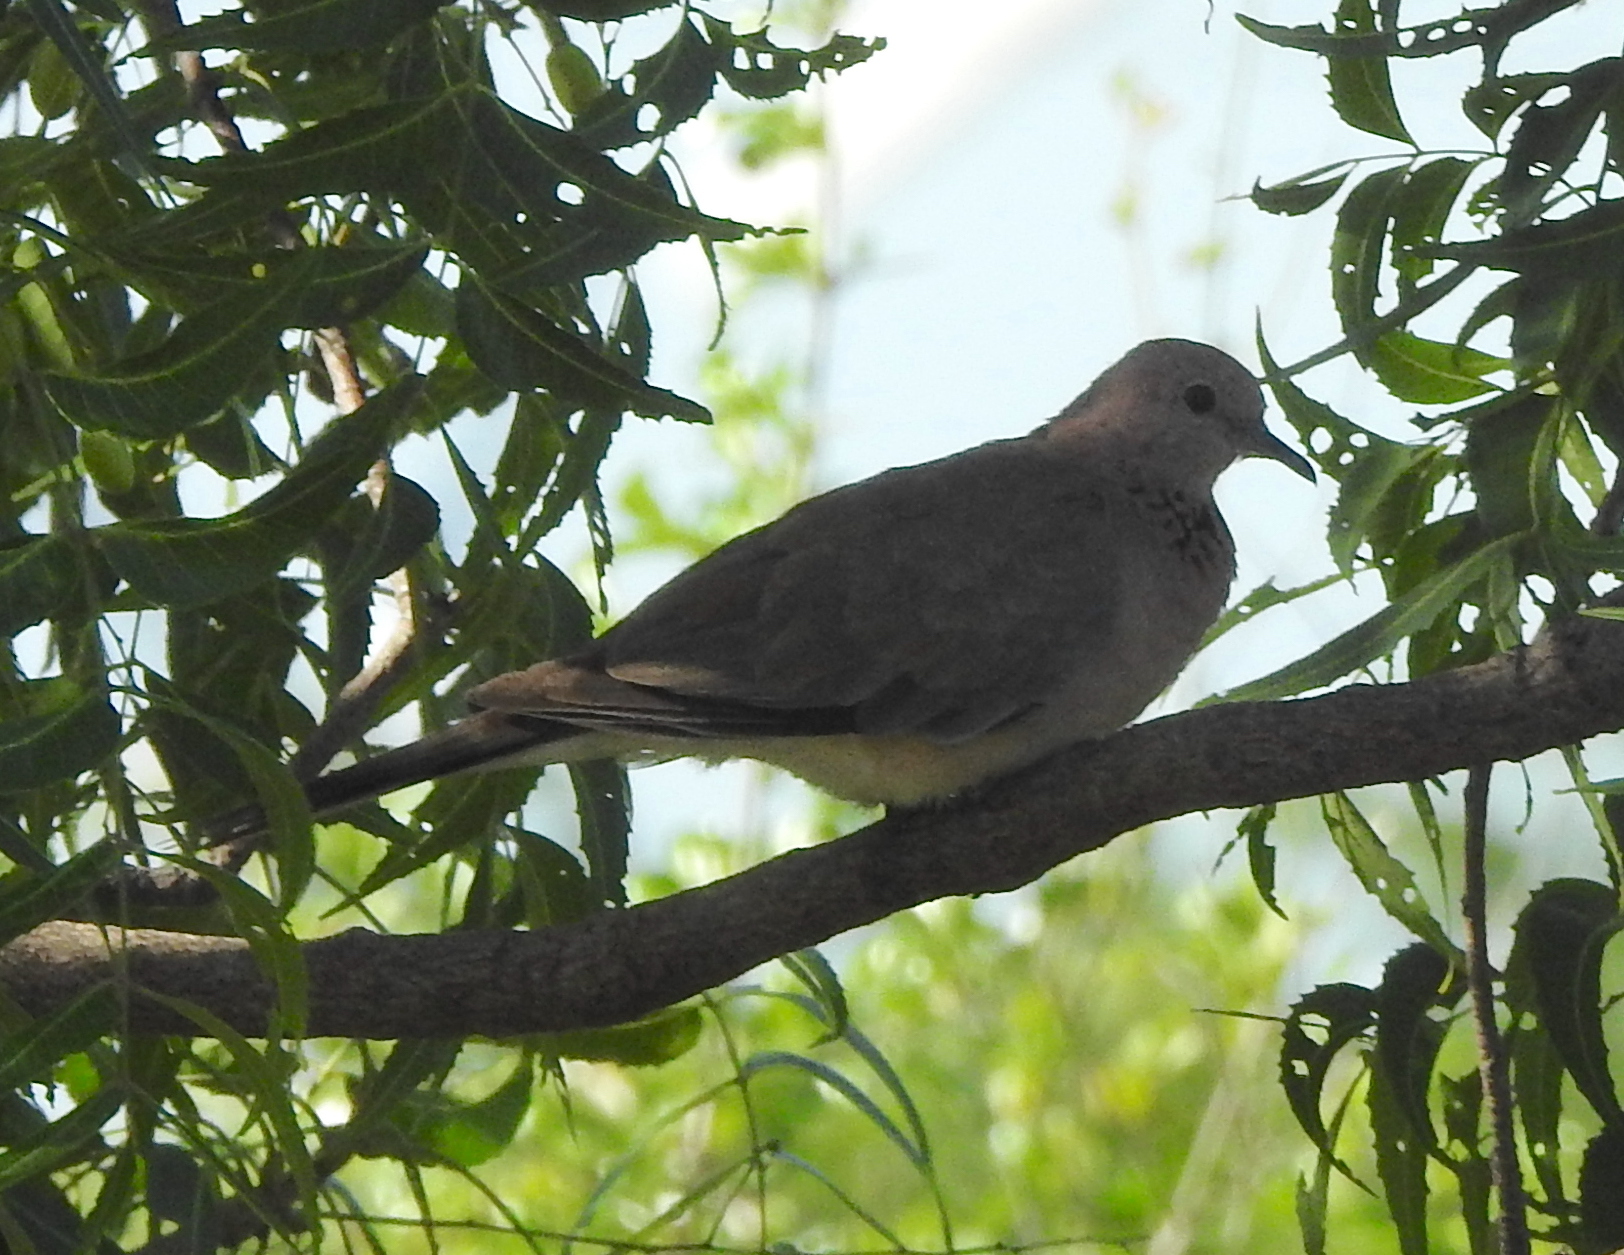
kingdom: Animalia
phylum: Chordata
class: Aves
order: Columbiformes
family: Columbidae
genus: Spilopelia
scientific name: Spilopelia senegalensis
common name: Laughing dove
